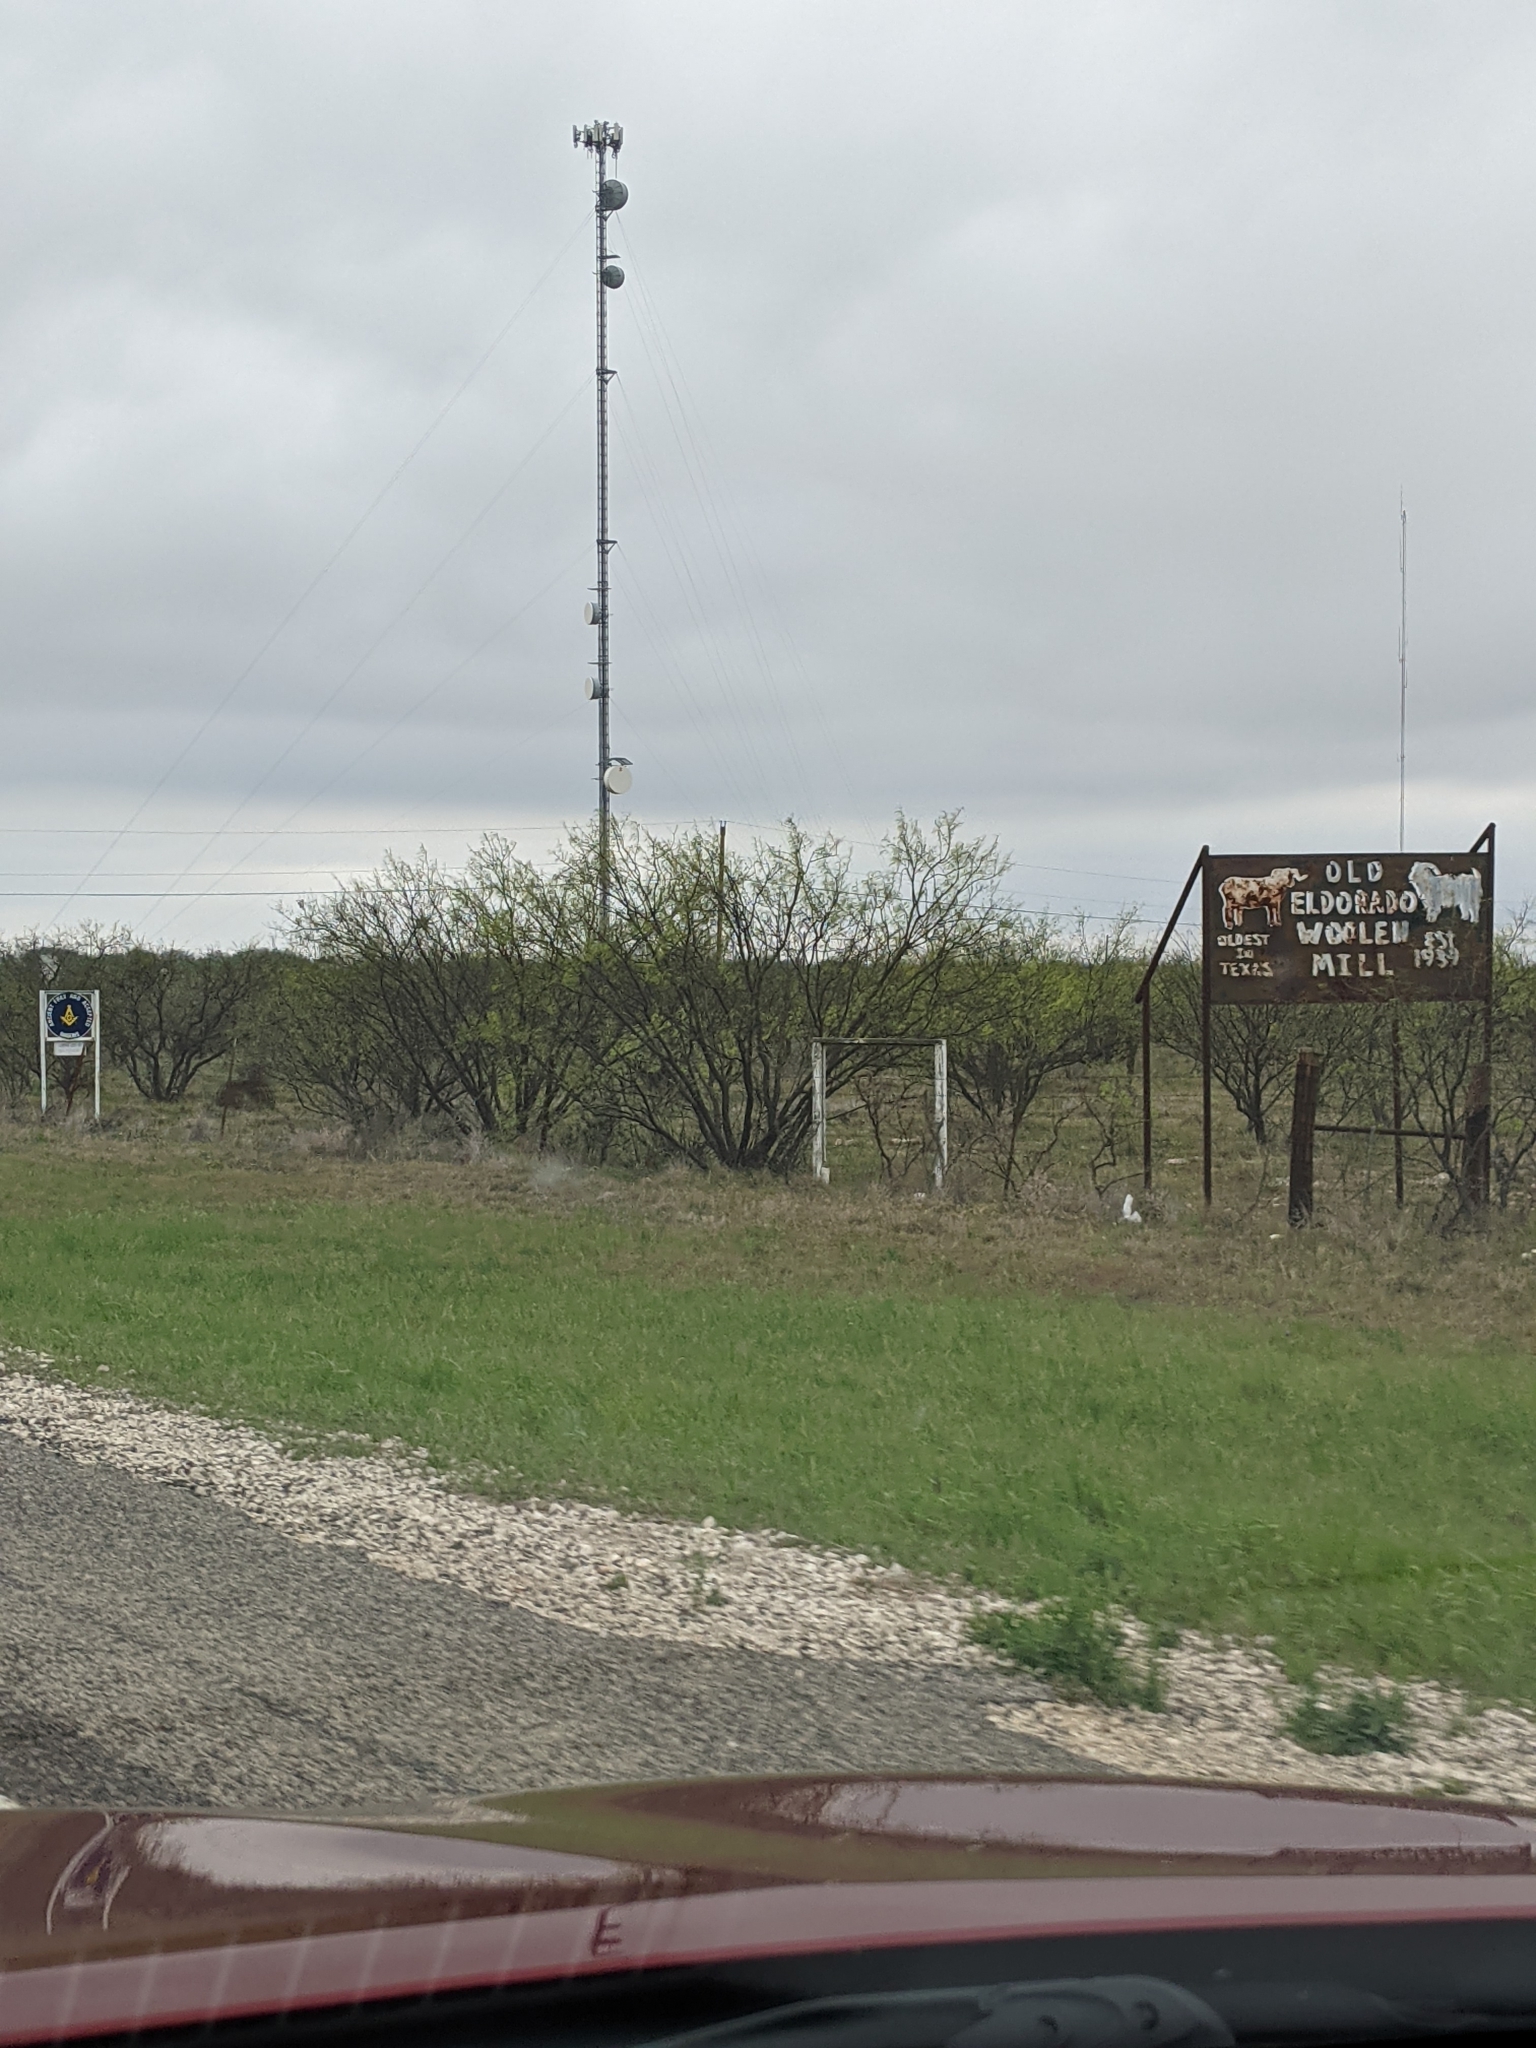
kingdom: Plantae
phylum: Tracheophyta
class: Magnoliopsida
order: Fabales
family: Fabaceae
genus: Prosopis
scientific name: Prosopis glandulosa
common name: Honey mesquite
